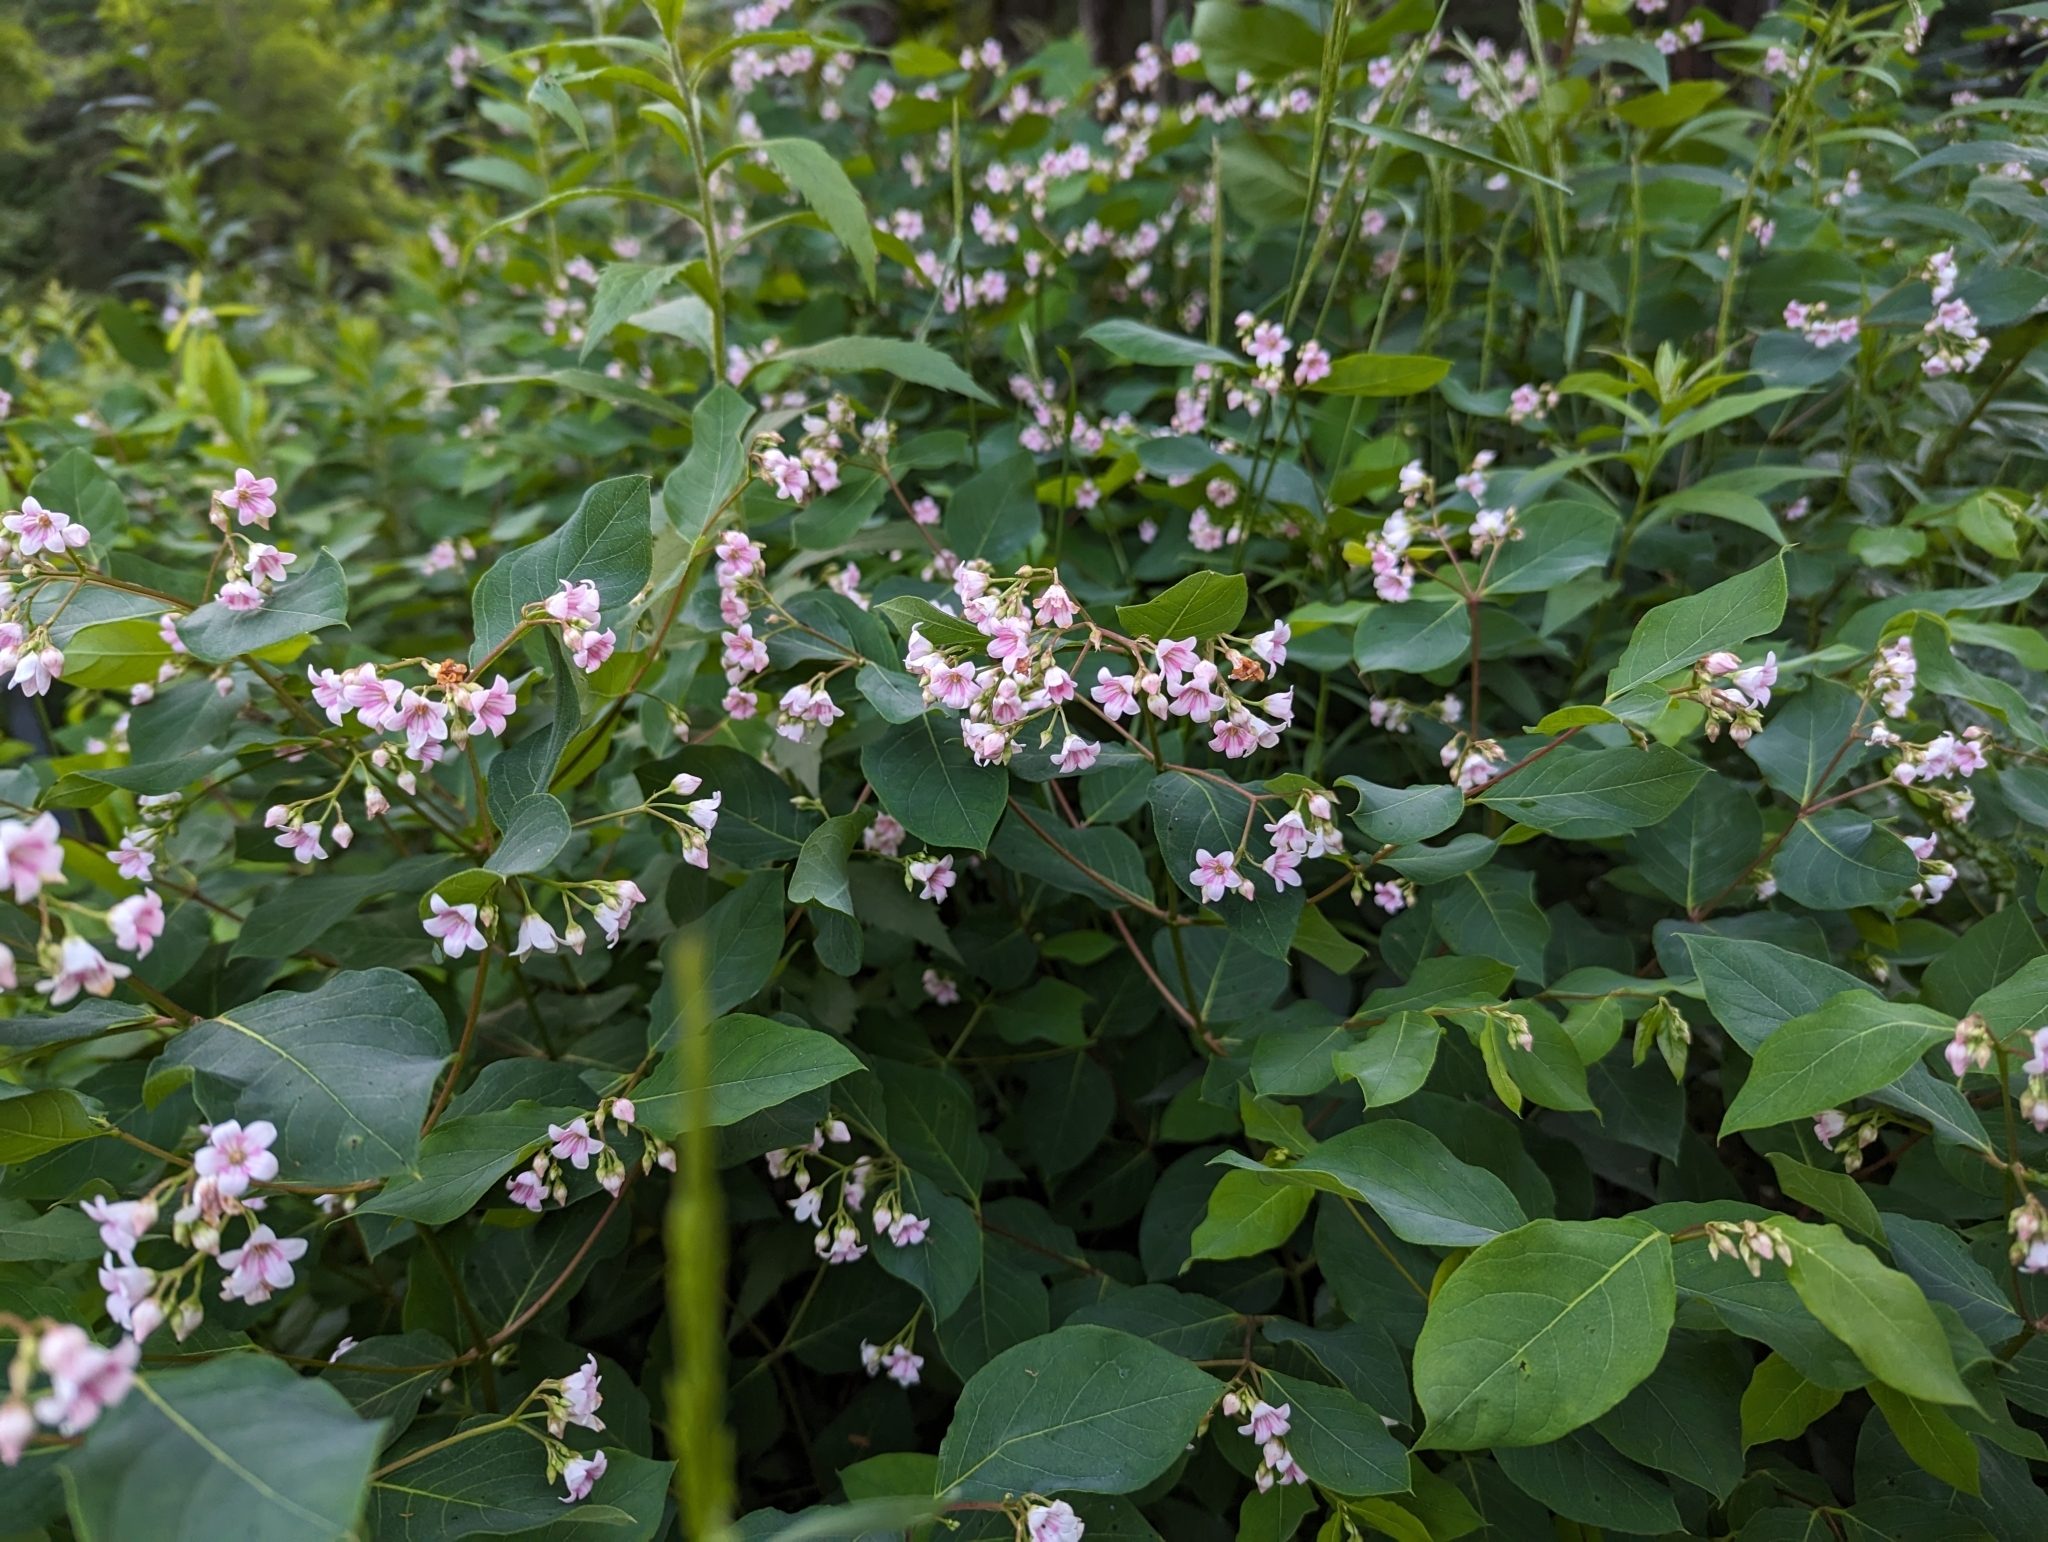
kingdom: Plantae
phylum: Tracheophyta
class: Magnoliopsida
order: Gentianales
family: Apocynaceae
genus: Apocynum
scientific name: Apocynum androsaemifolium
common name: Spreading dogbane
